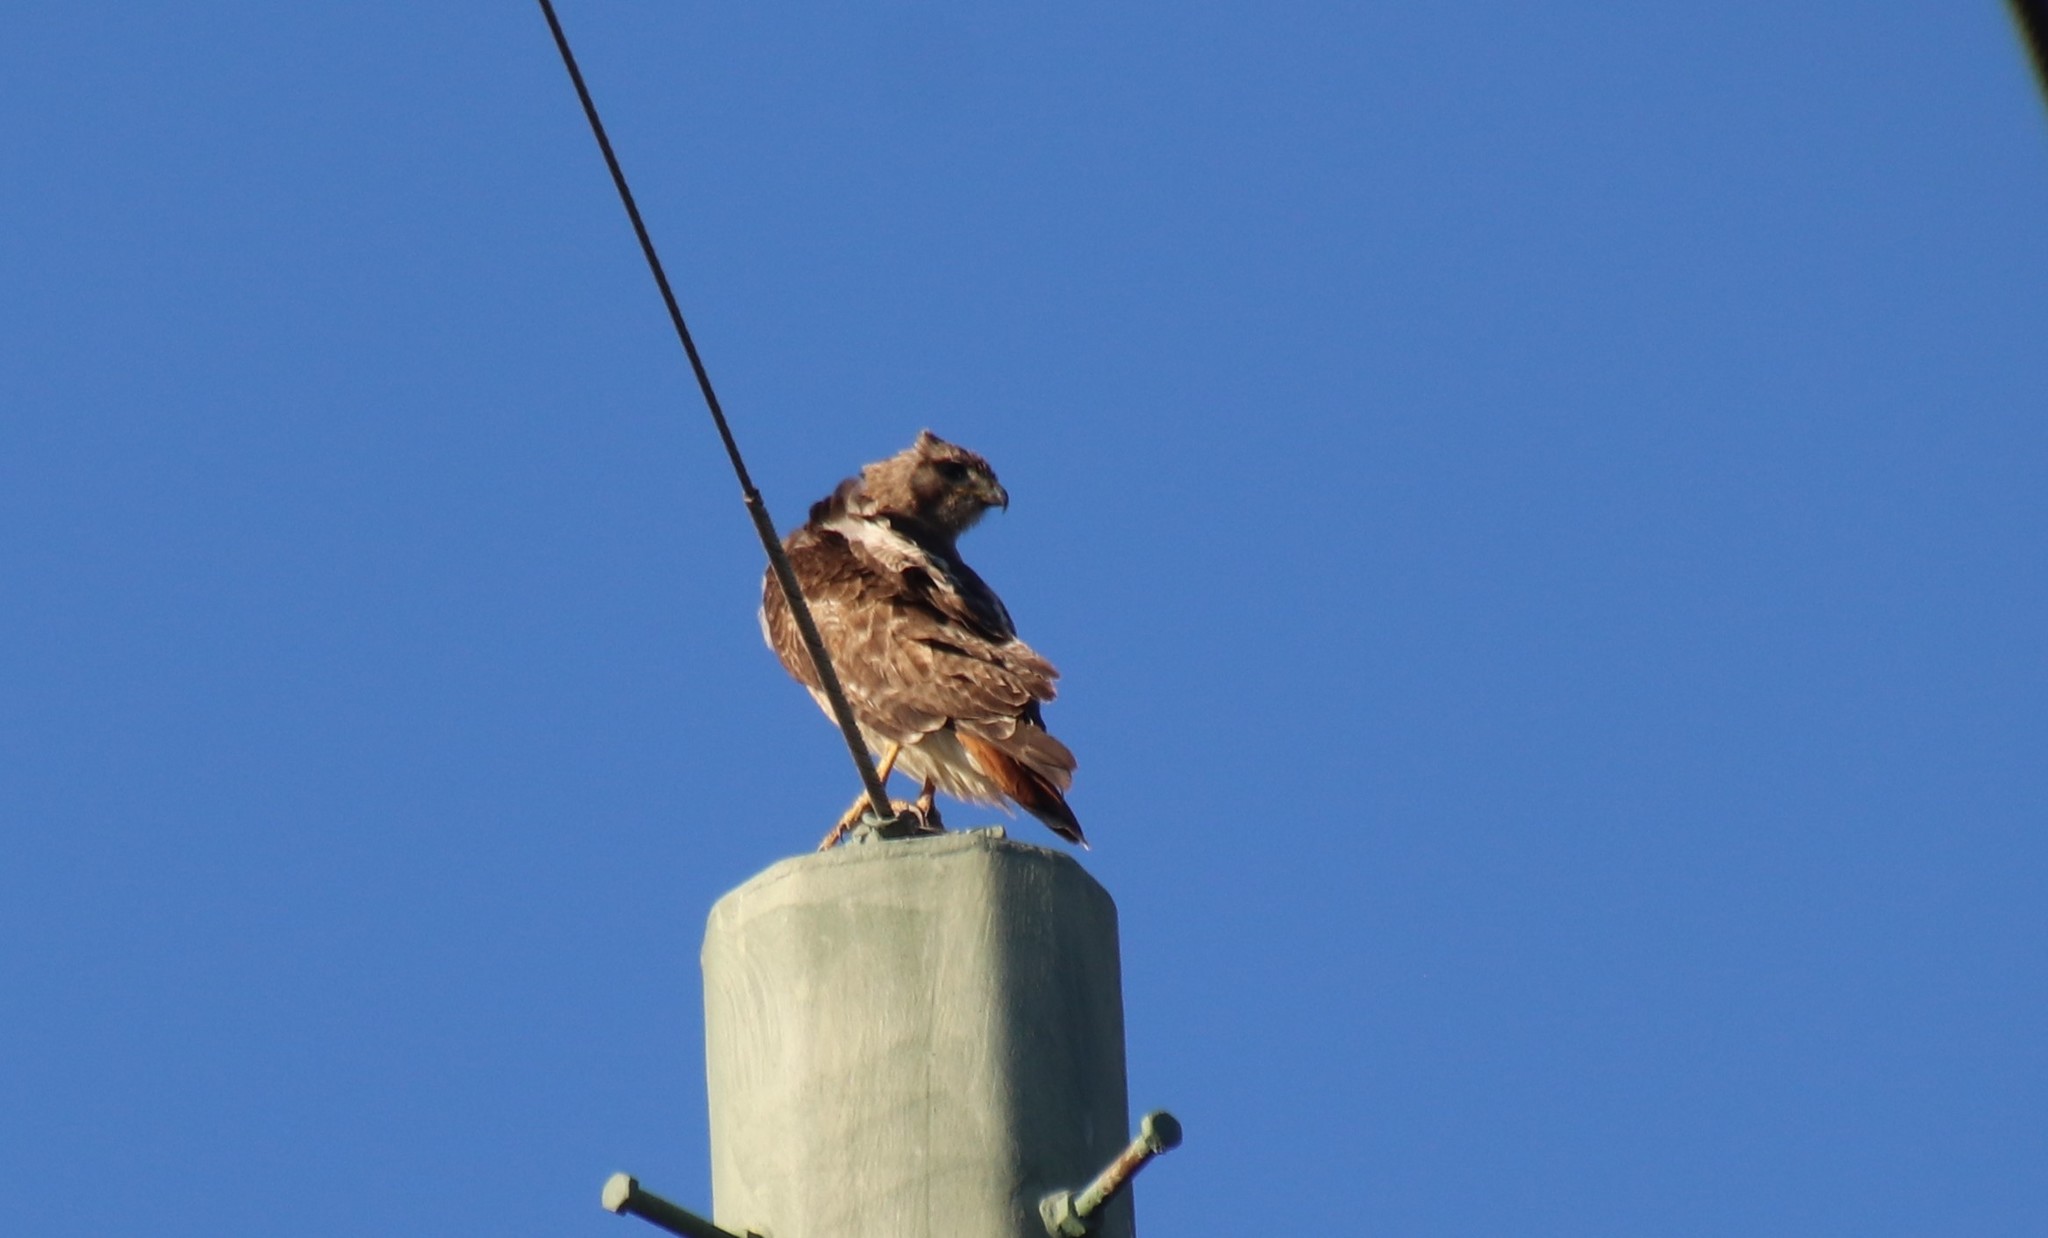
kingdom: Animalia
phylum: Chordata
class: Aves
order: Accipitriformes
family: Accipitridae
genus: Buteo
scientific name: Buteo jamaicensis
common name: Red-tailed hawk
